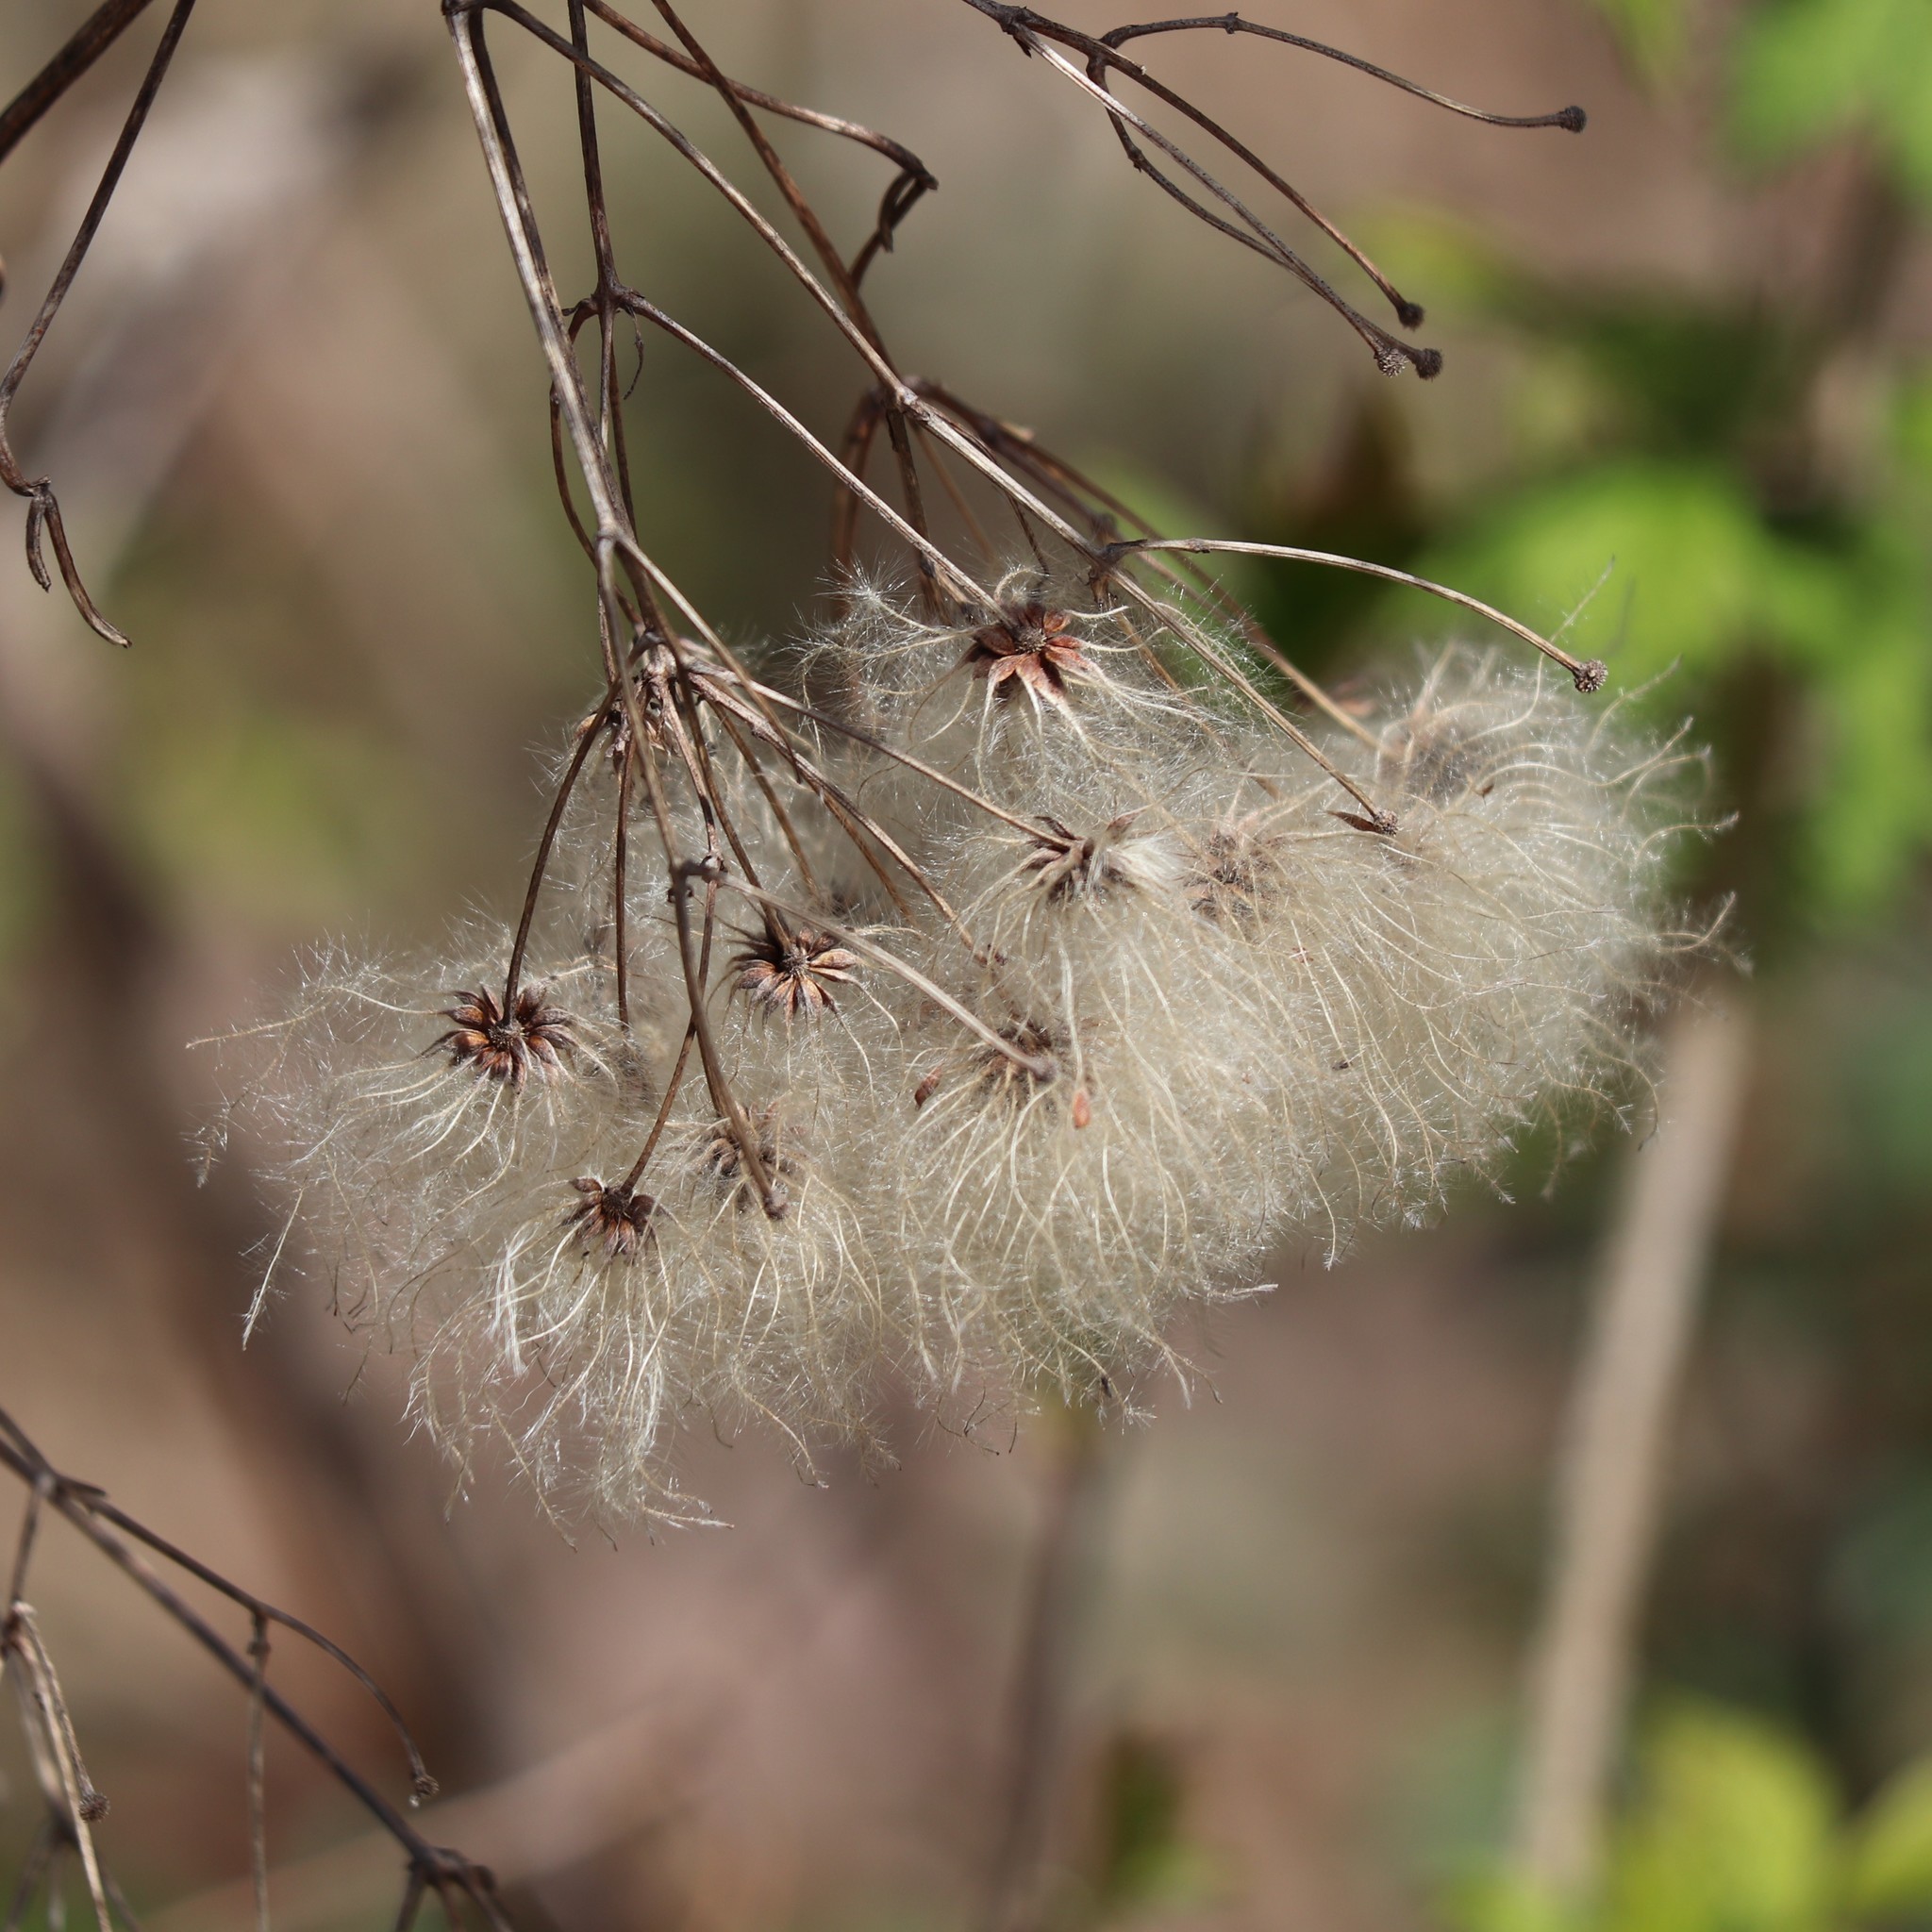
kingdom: Plantae
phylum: Tracheophyta
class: Magnoliopsida
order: Ranunculales
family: Ranunculaceae
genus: Clematis
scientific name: Clematis virginiana
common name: Virgin's-bower
